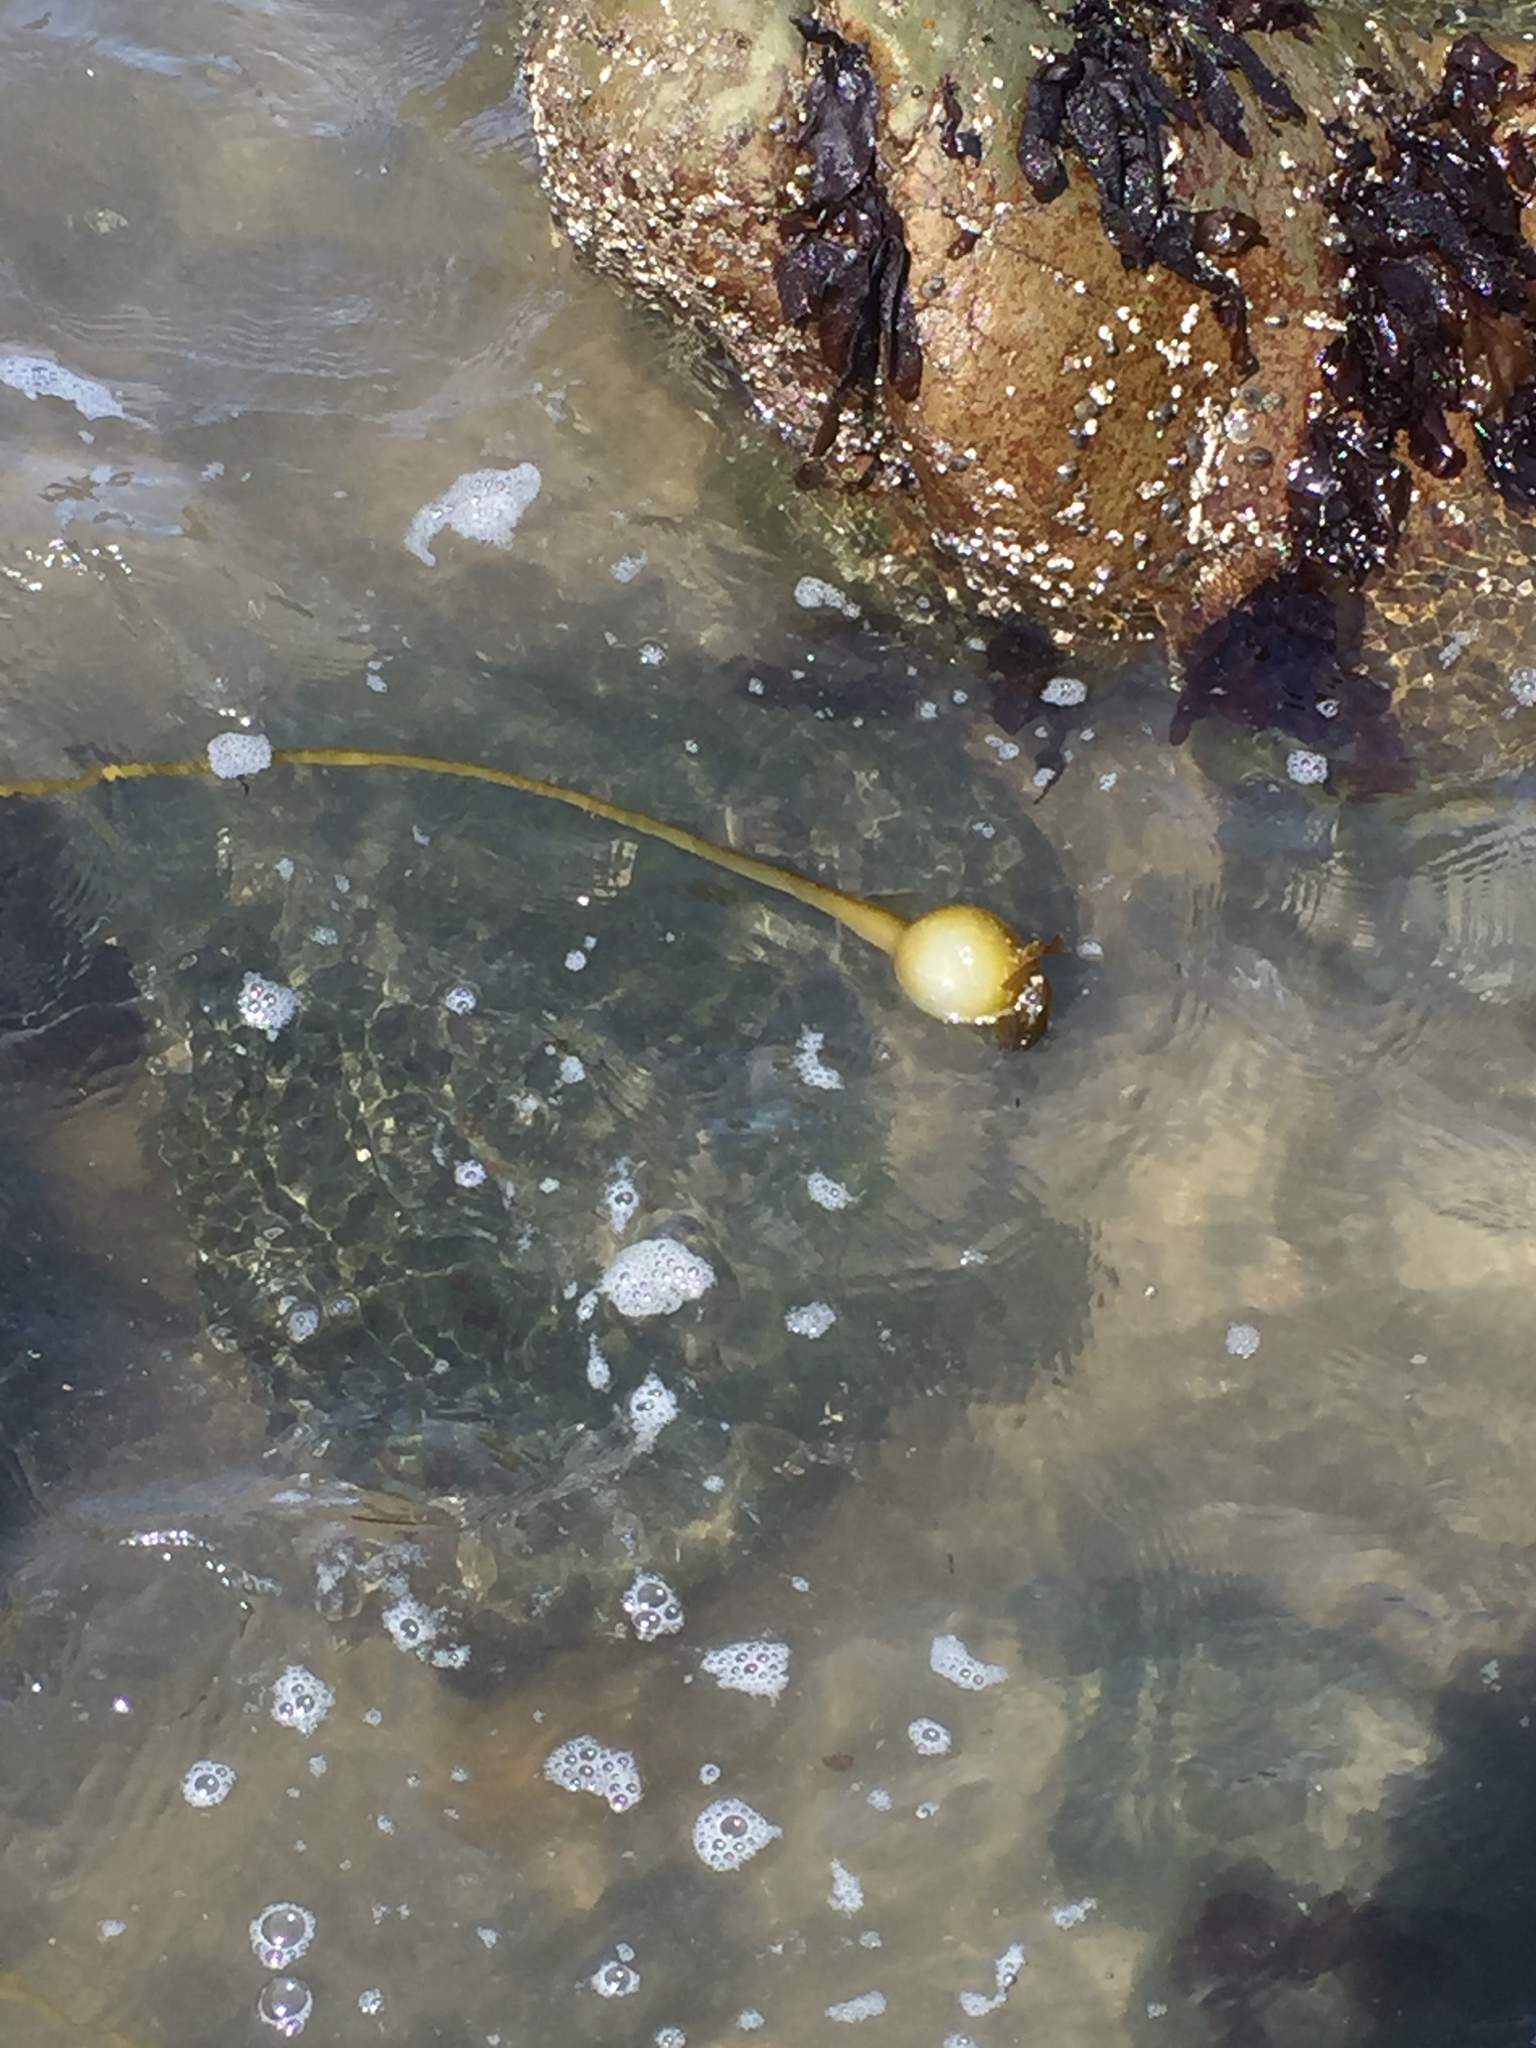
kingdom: Chromista
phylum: Ochrophyta
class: Phaeophyceae
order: Laminariales
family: Laminariaceae
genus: Nereocystis
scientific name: Nereocystis luetkeana
